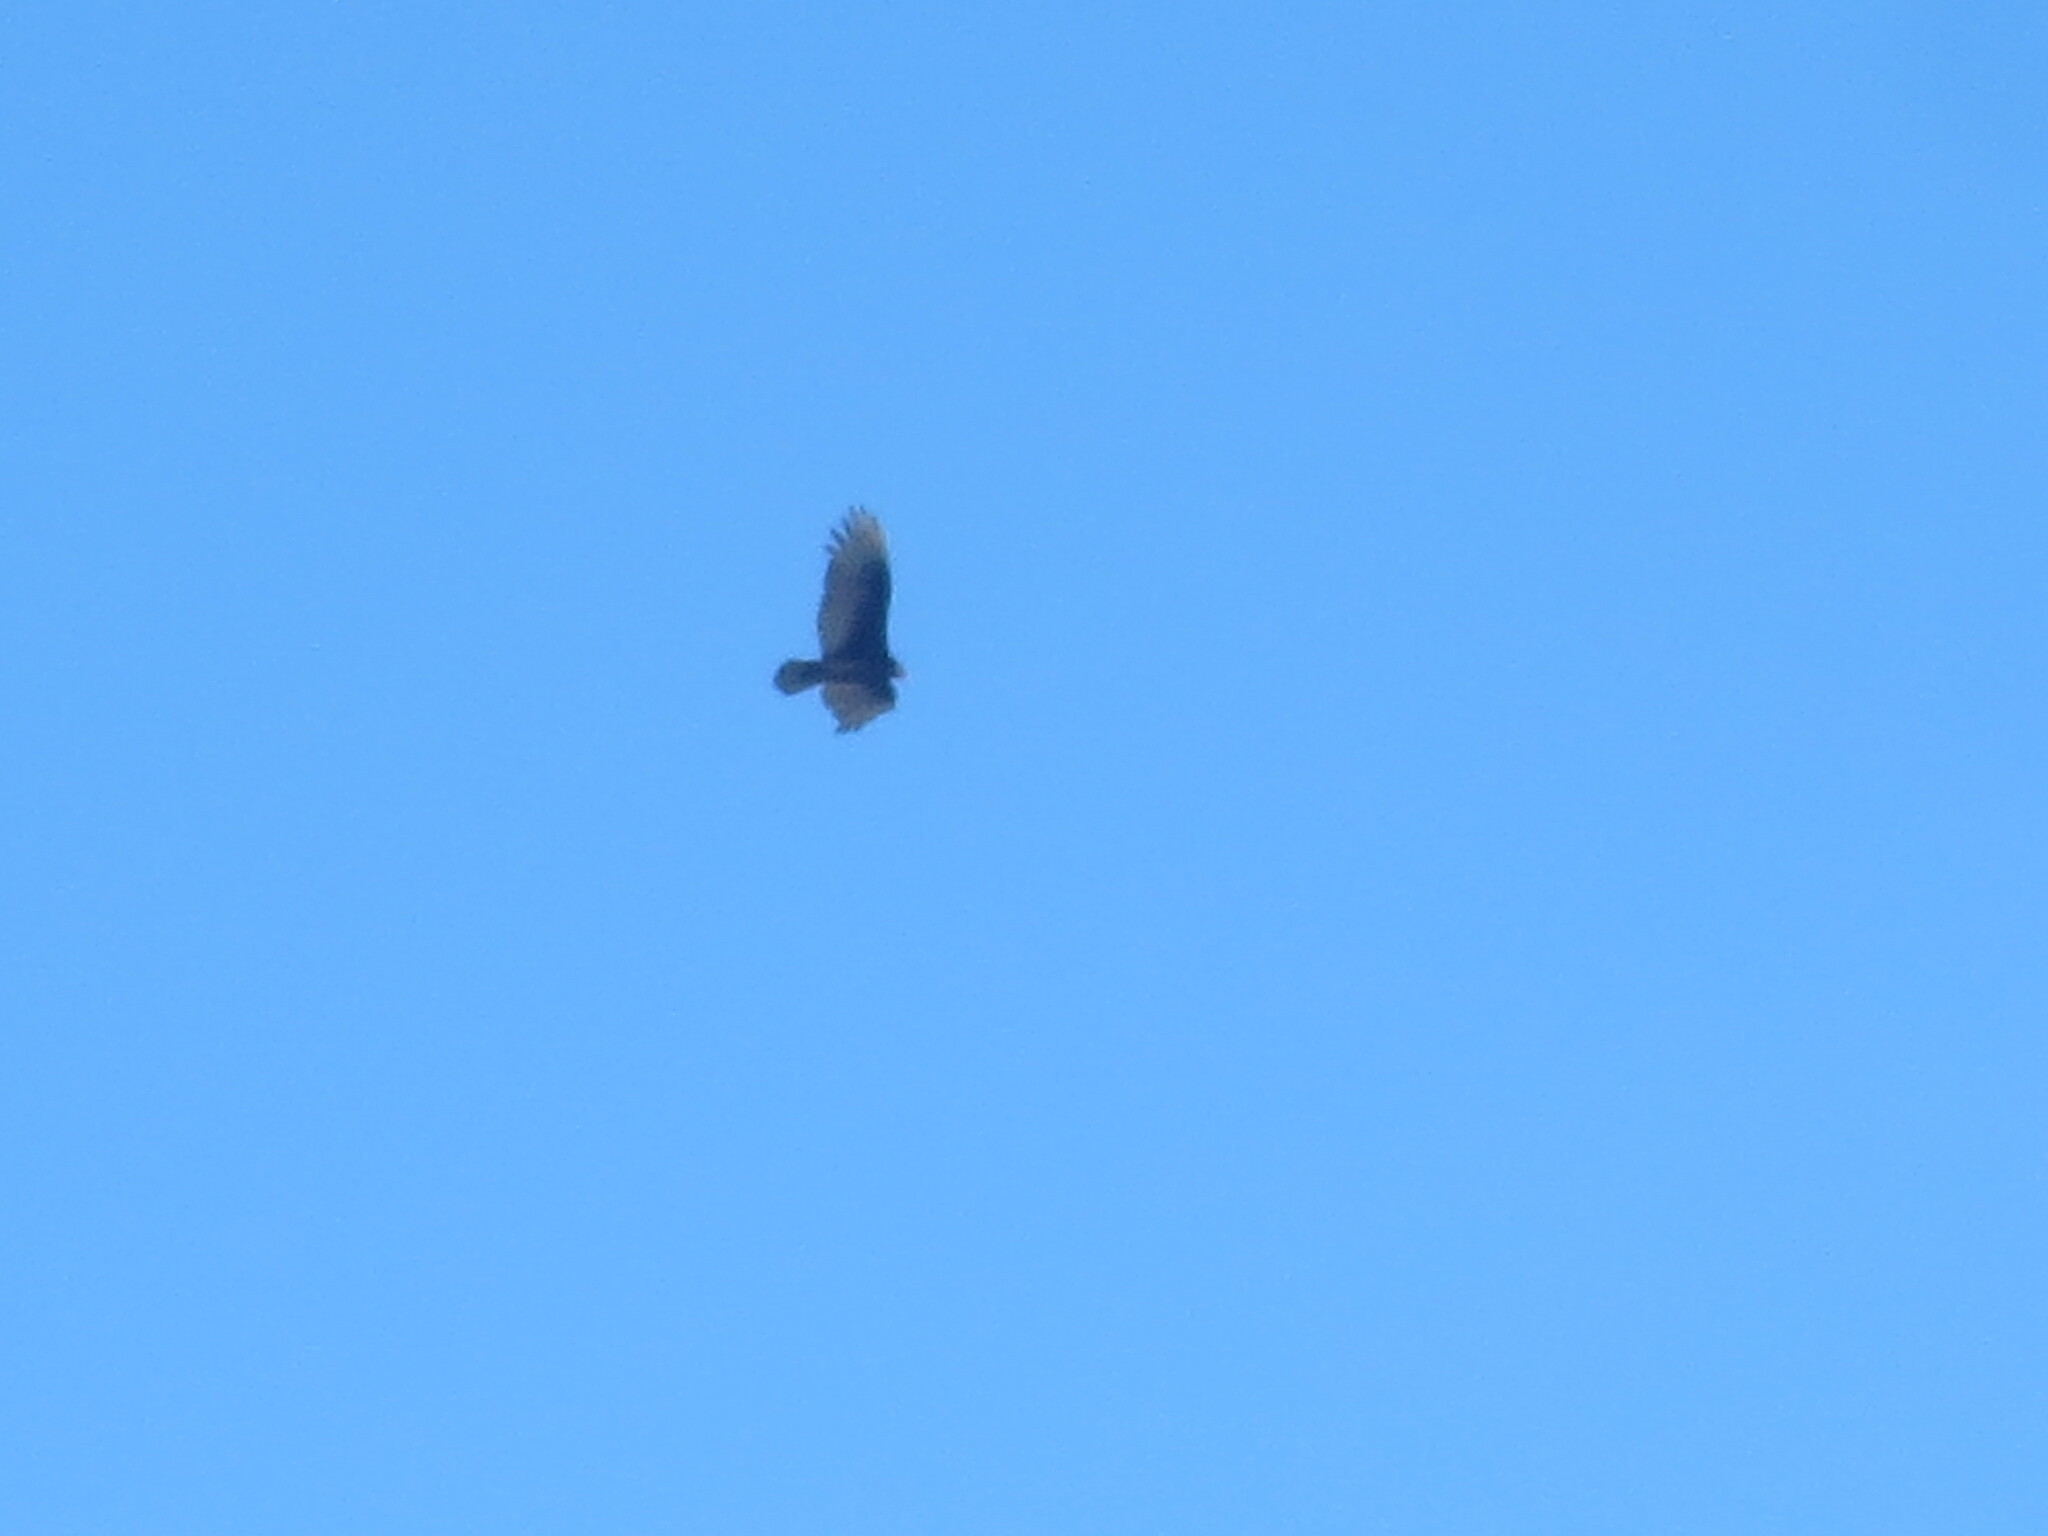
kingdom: Animalia
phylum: Chordata
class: Aves
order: Accipitriformes
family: Cathartidae
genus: Cathartes
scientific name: Cathartes aura
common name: Turkey vulture
